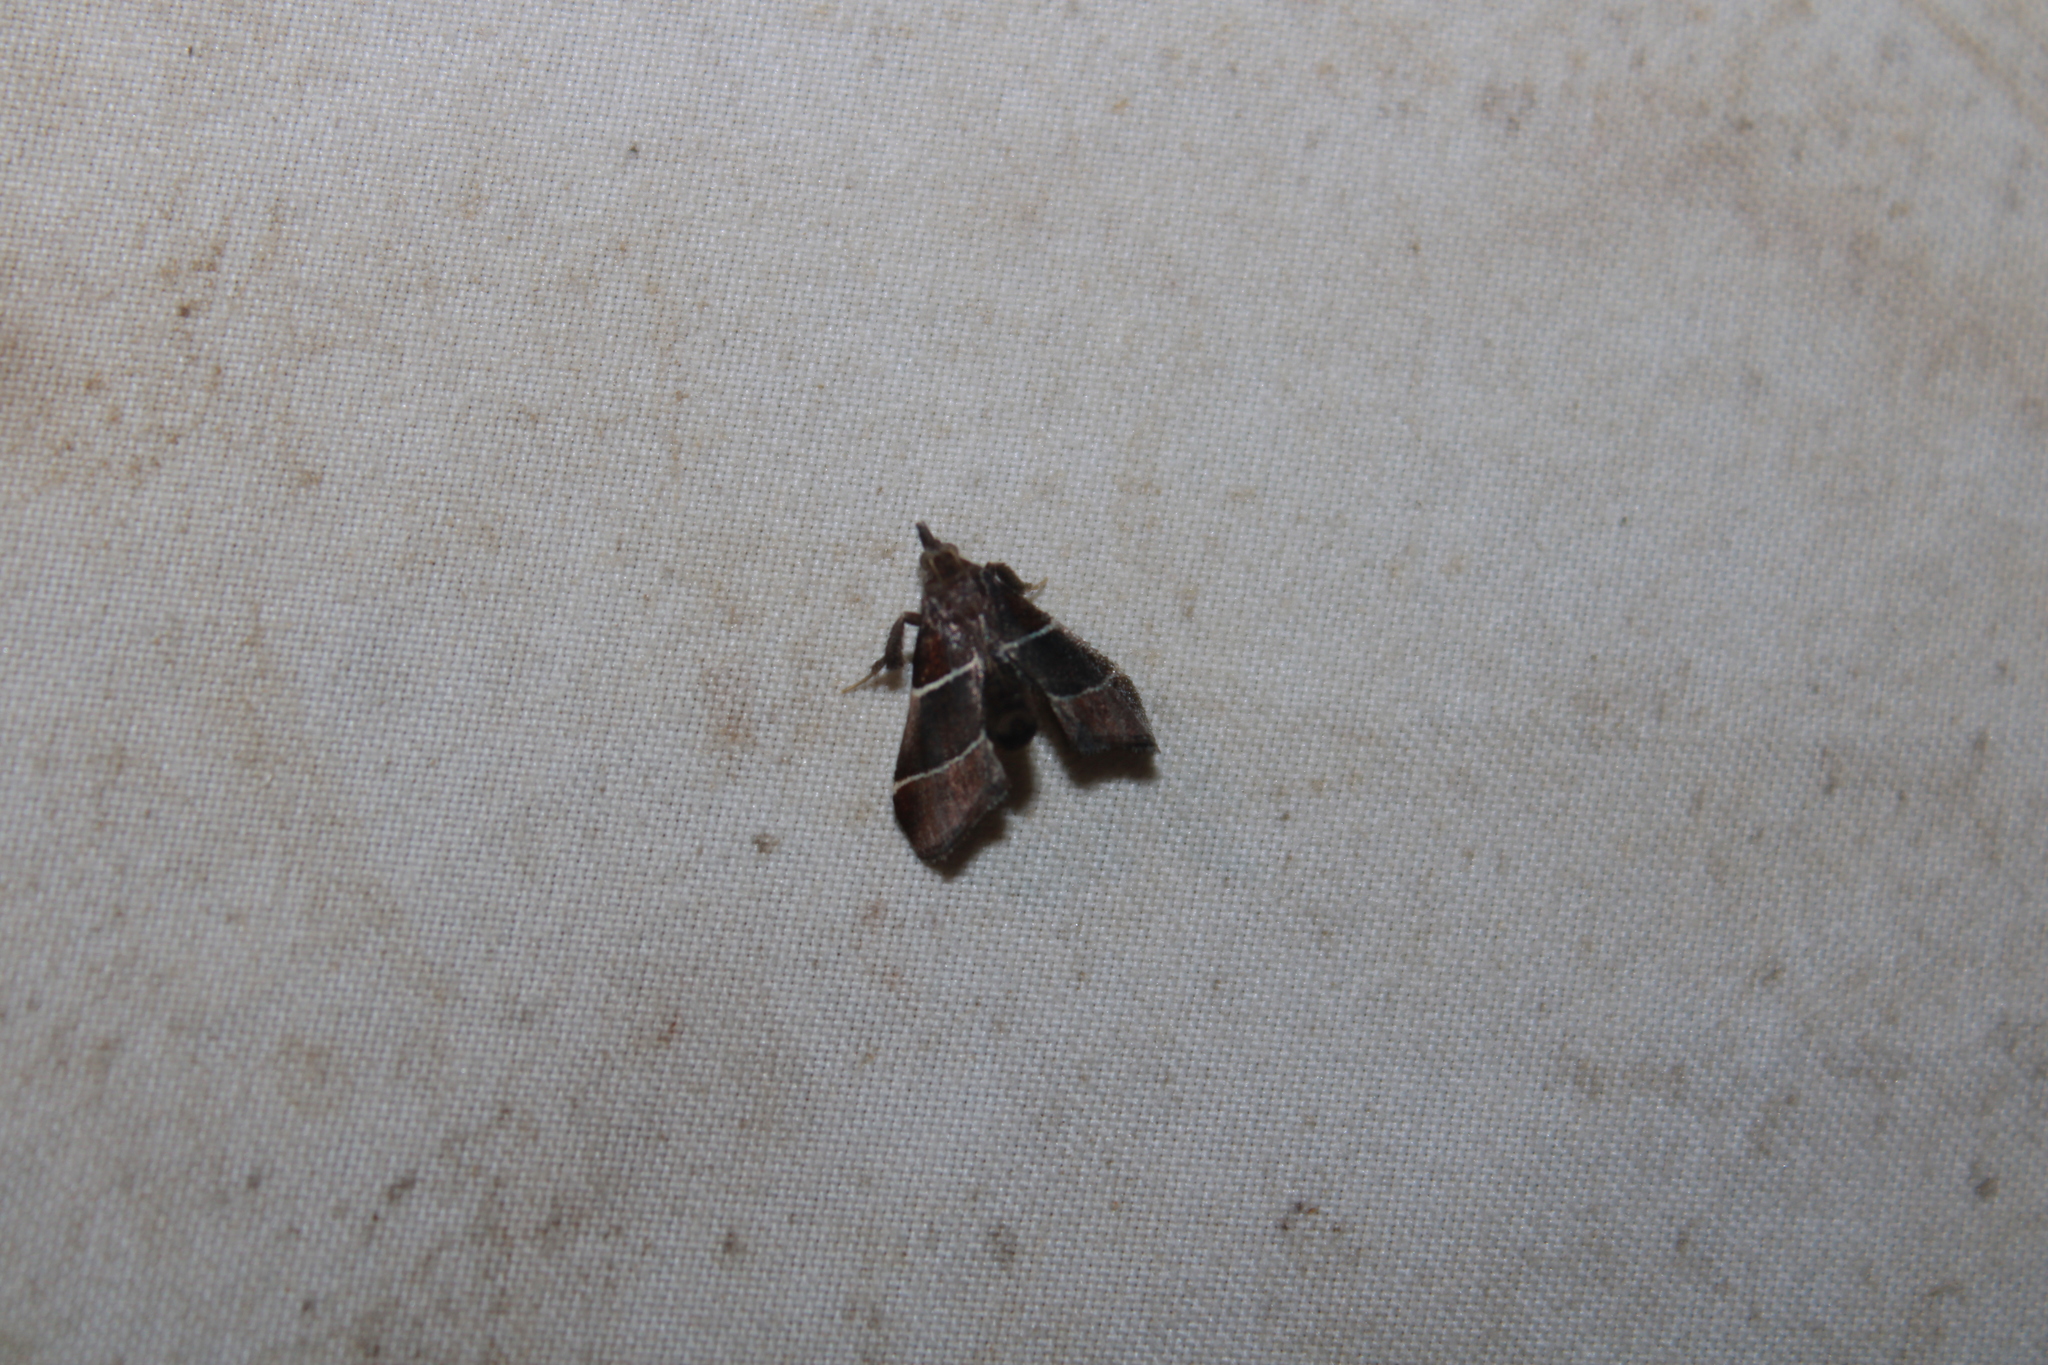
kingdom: Animalia
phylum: Arthropoda
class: Insecta
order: Lepidoptera
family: Pyralidae
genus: Penthesilea
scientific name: Penthesilea difficilis
